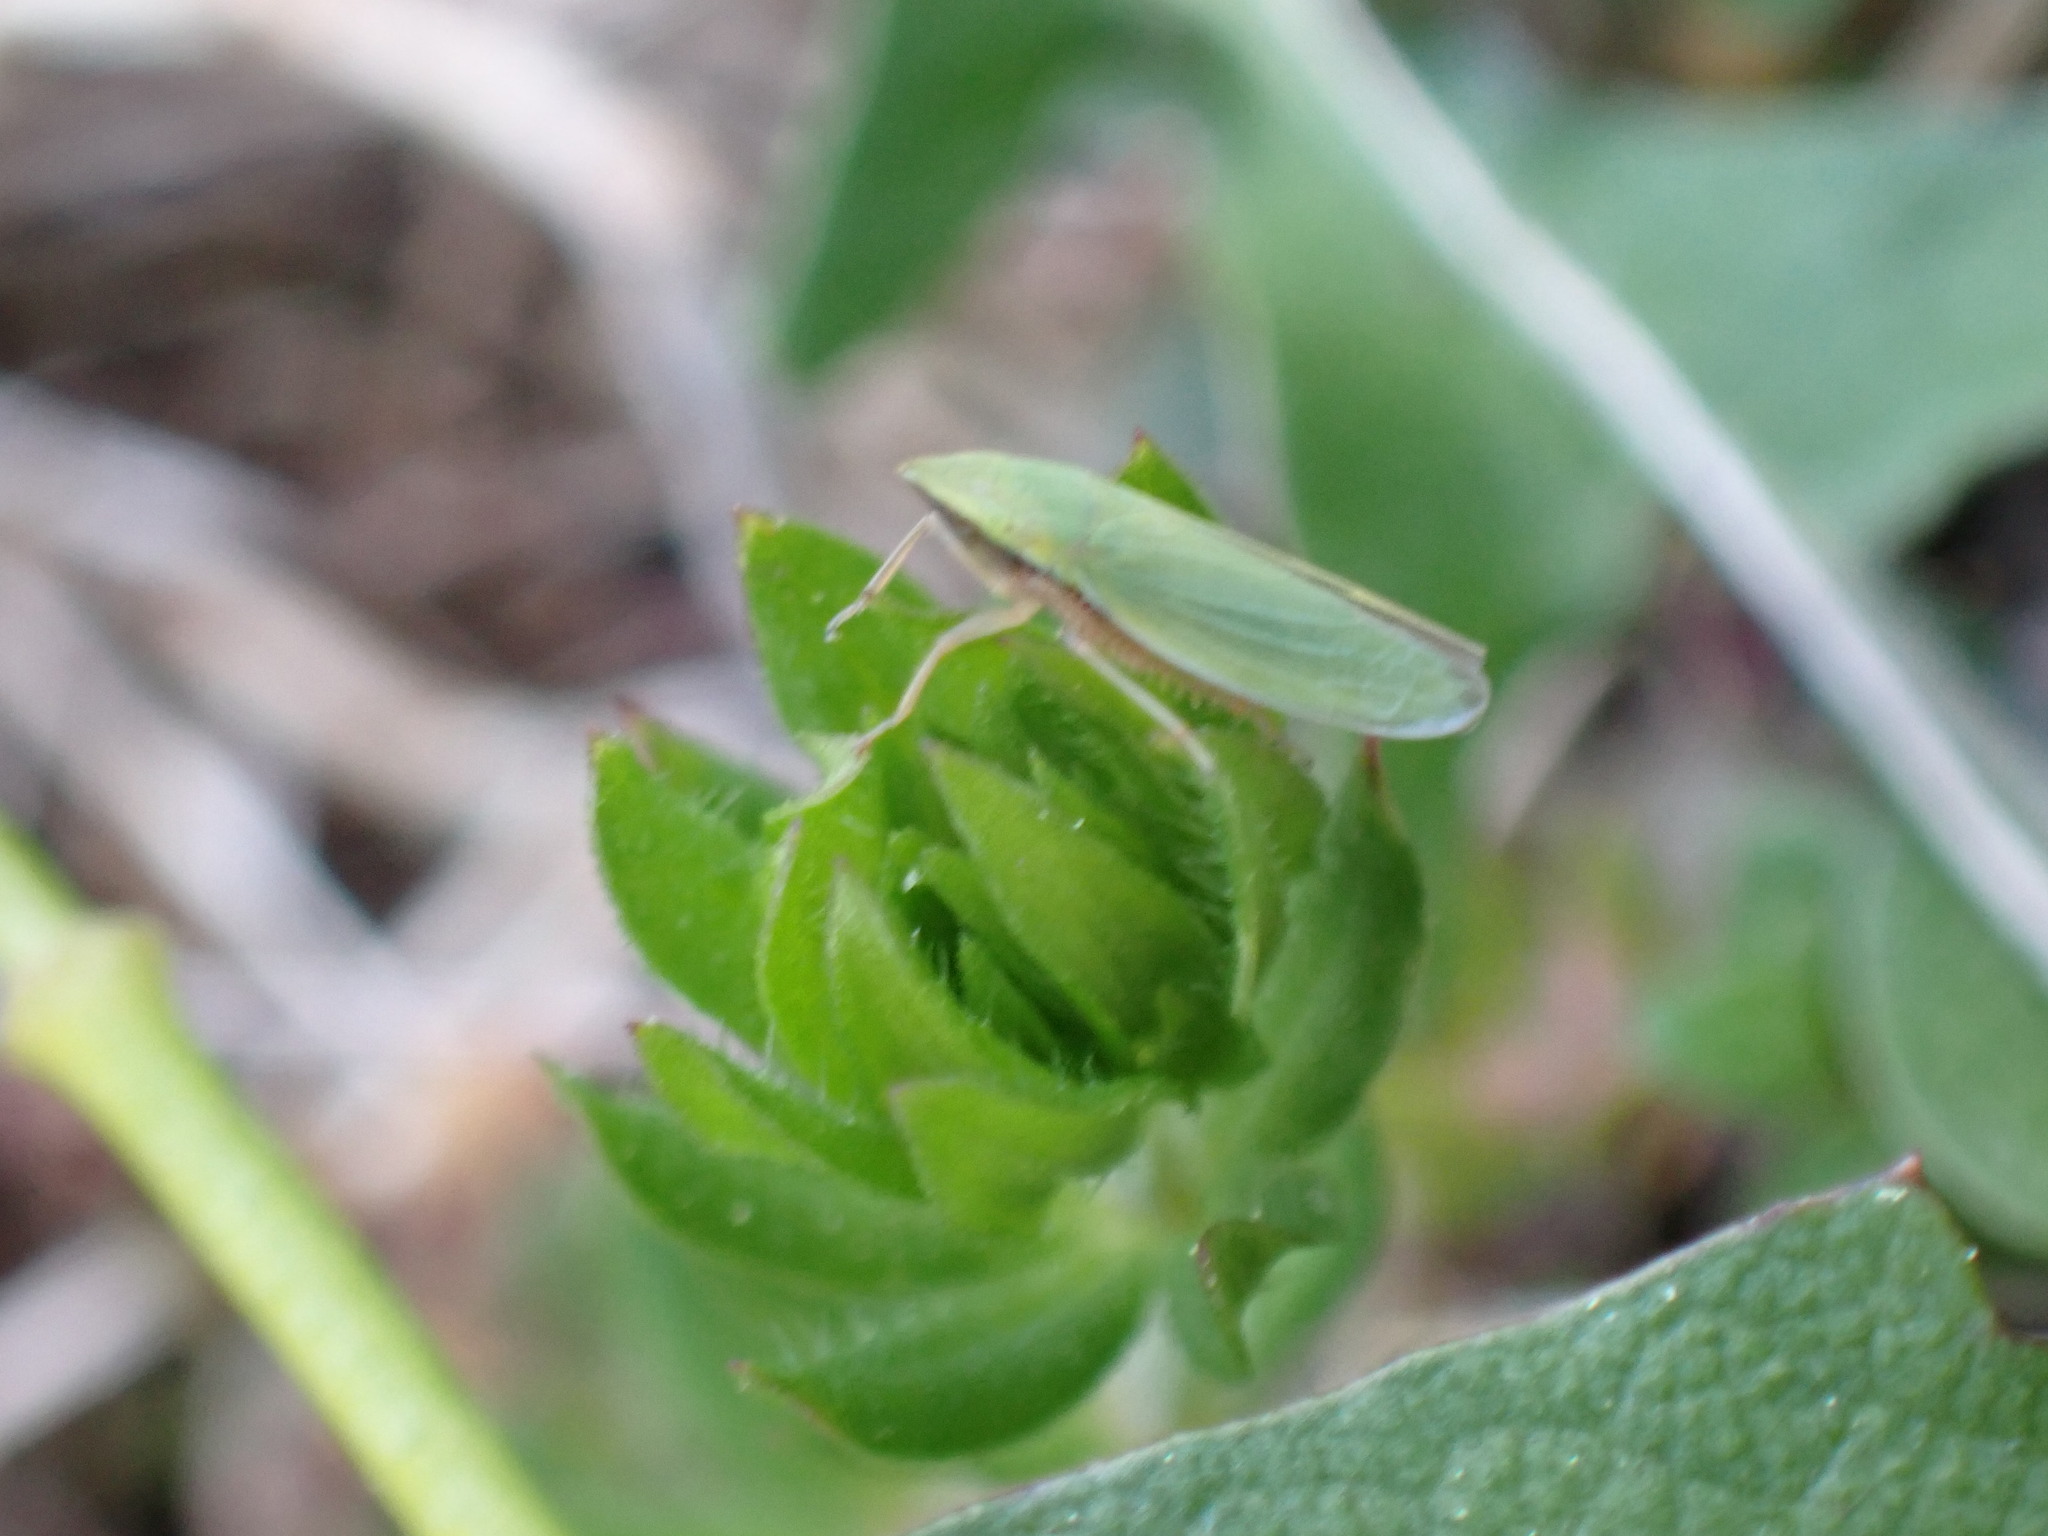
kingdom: Animalia
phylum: Arthropoda
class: Insecta
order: Hemiptera
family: Cicadellidae
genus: Draeculacephala
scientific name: Draeculacephala antica
